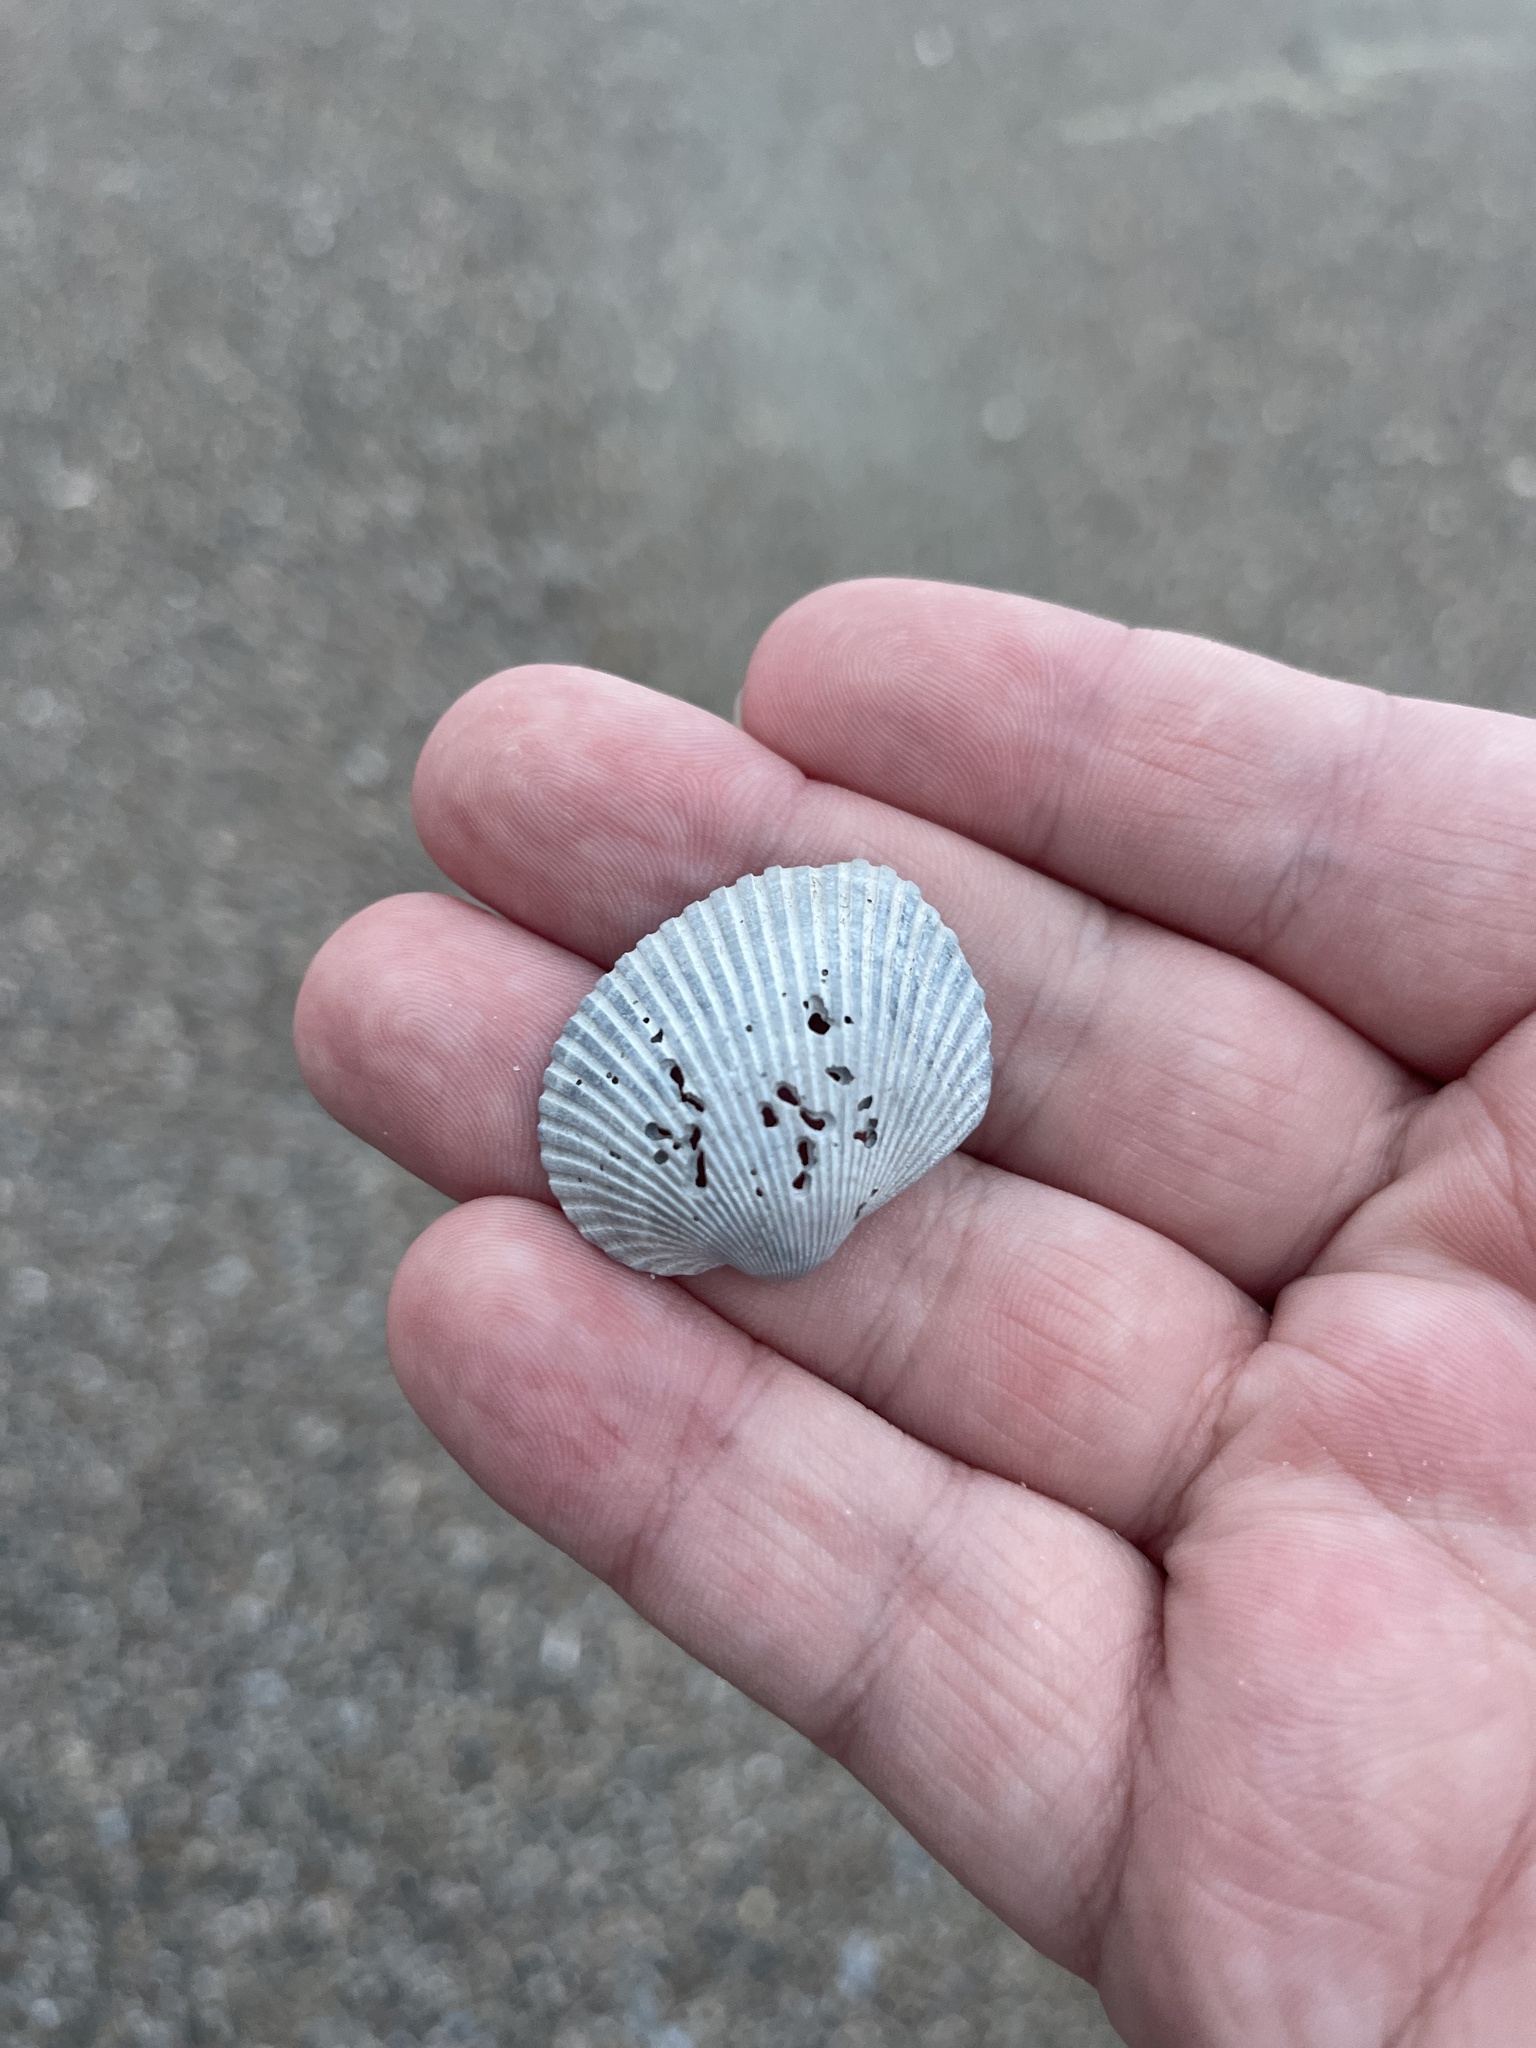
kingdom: Animalia
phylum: Mollusca
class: Bivalvia
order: Arcida
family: Arcidae
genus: Lunarca
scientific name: Lunarca ovalis
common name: Blood ark
